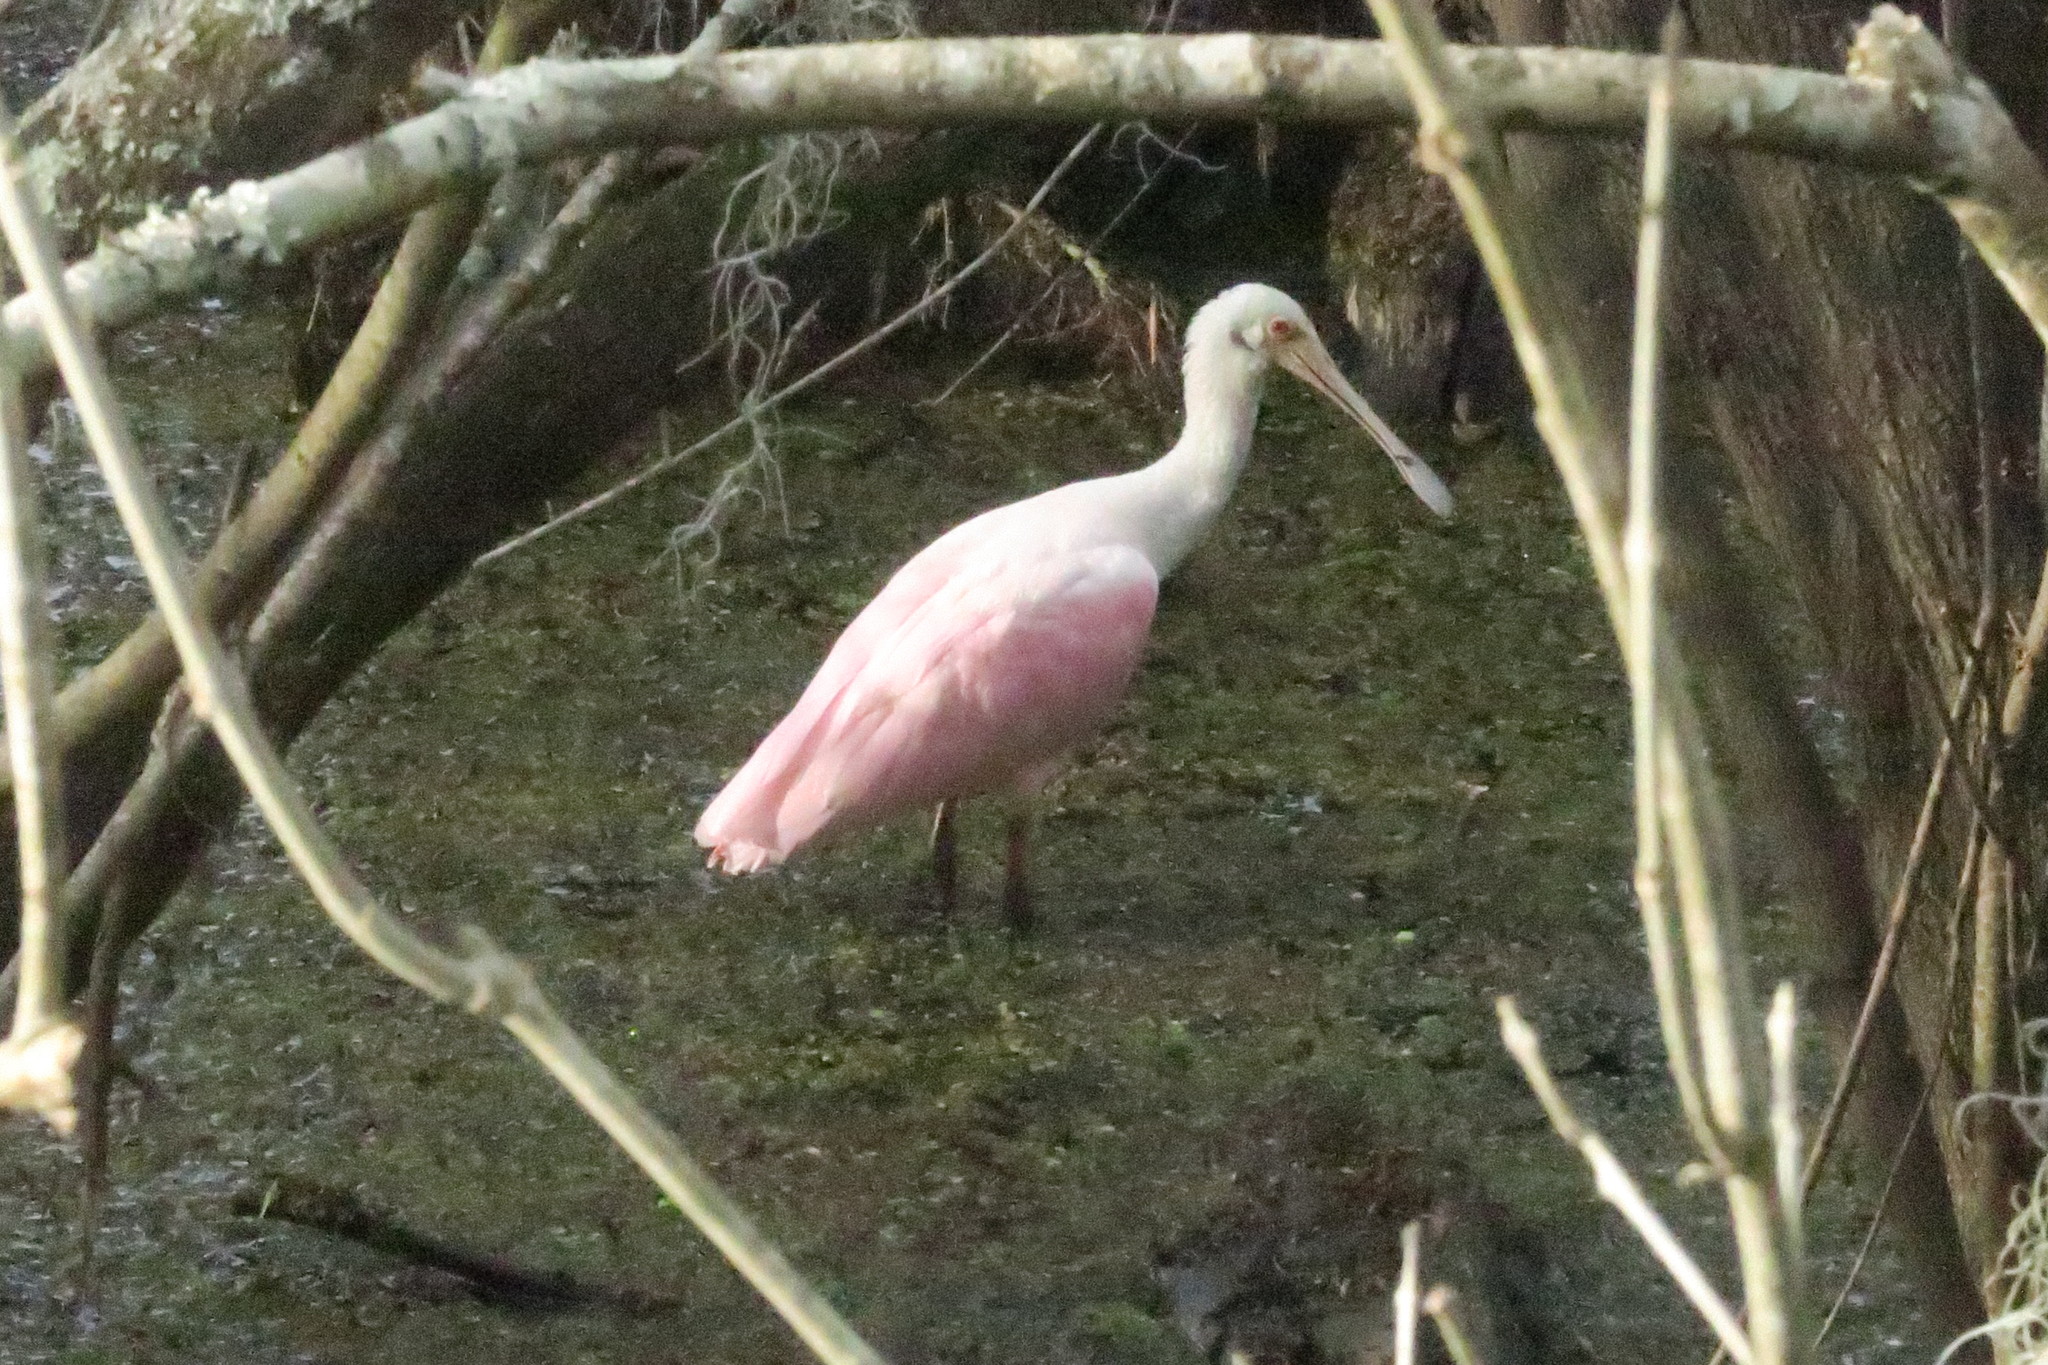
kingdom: Animalia
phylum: Chordata
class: Aves
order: Pelecaniformes
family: Threskiornithidae
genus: Platalea
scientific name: Platalea ajaja
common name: Roseate spoonbill
